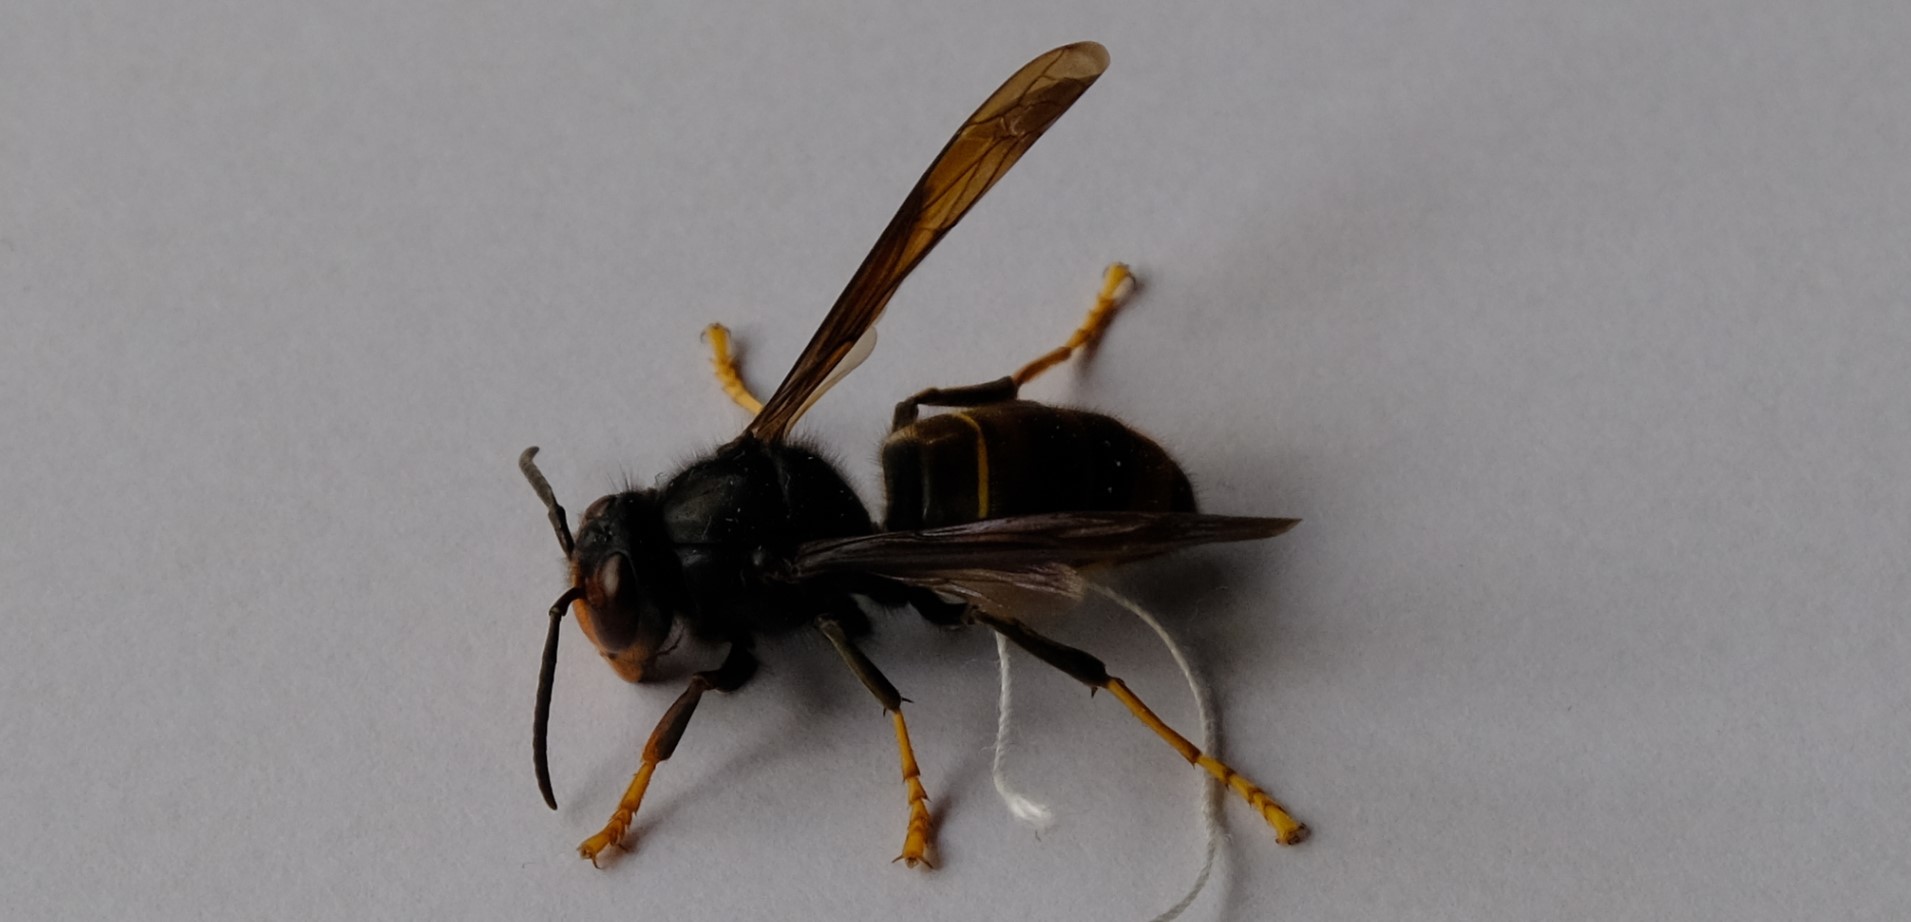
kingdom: Animalia
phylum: Arthropoda
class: Insecta
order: Hymenoptera
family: Vespidae
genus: Vespa
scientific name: Vespa velutina
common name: Asian hornet
